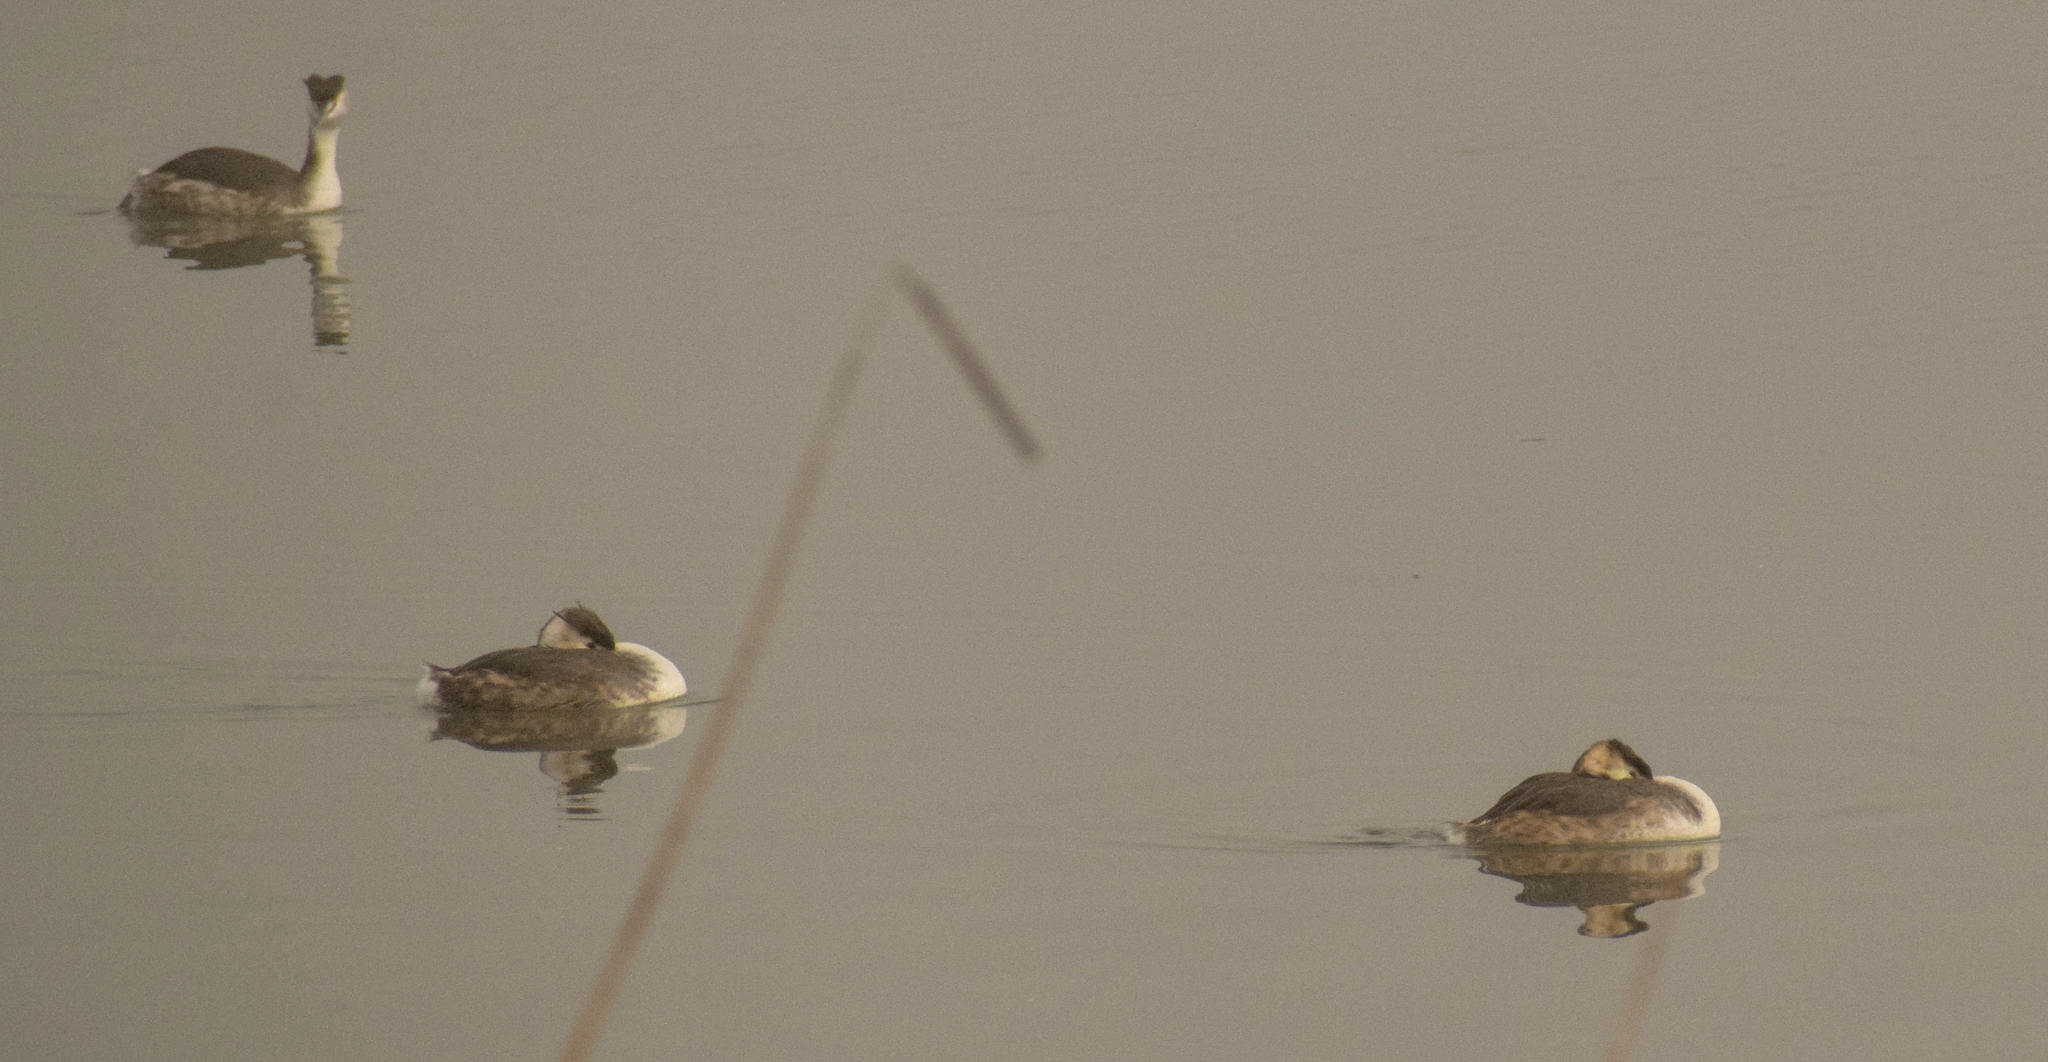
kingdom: Animalia
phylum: Chordata
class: Aves
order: Podicipediformes
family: Podicipedidae
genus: Podiceps
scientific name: Podiceps cristatus
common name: Great crested grebe
